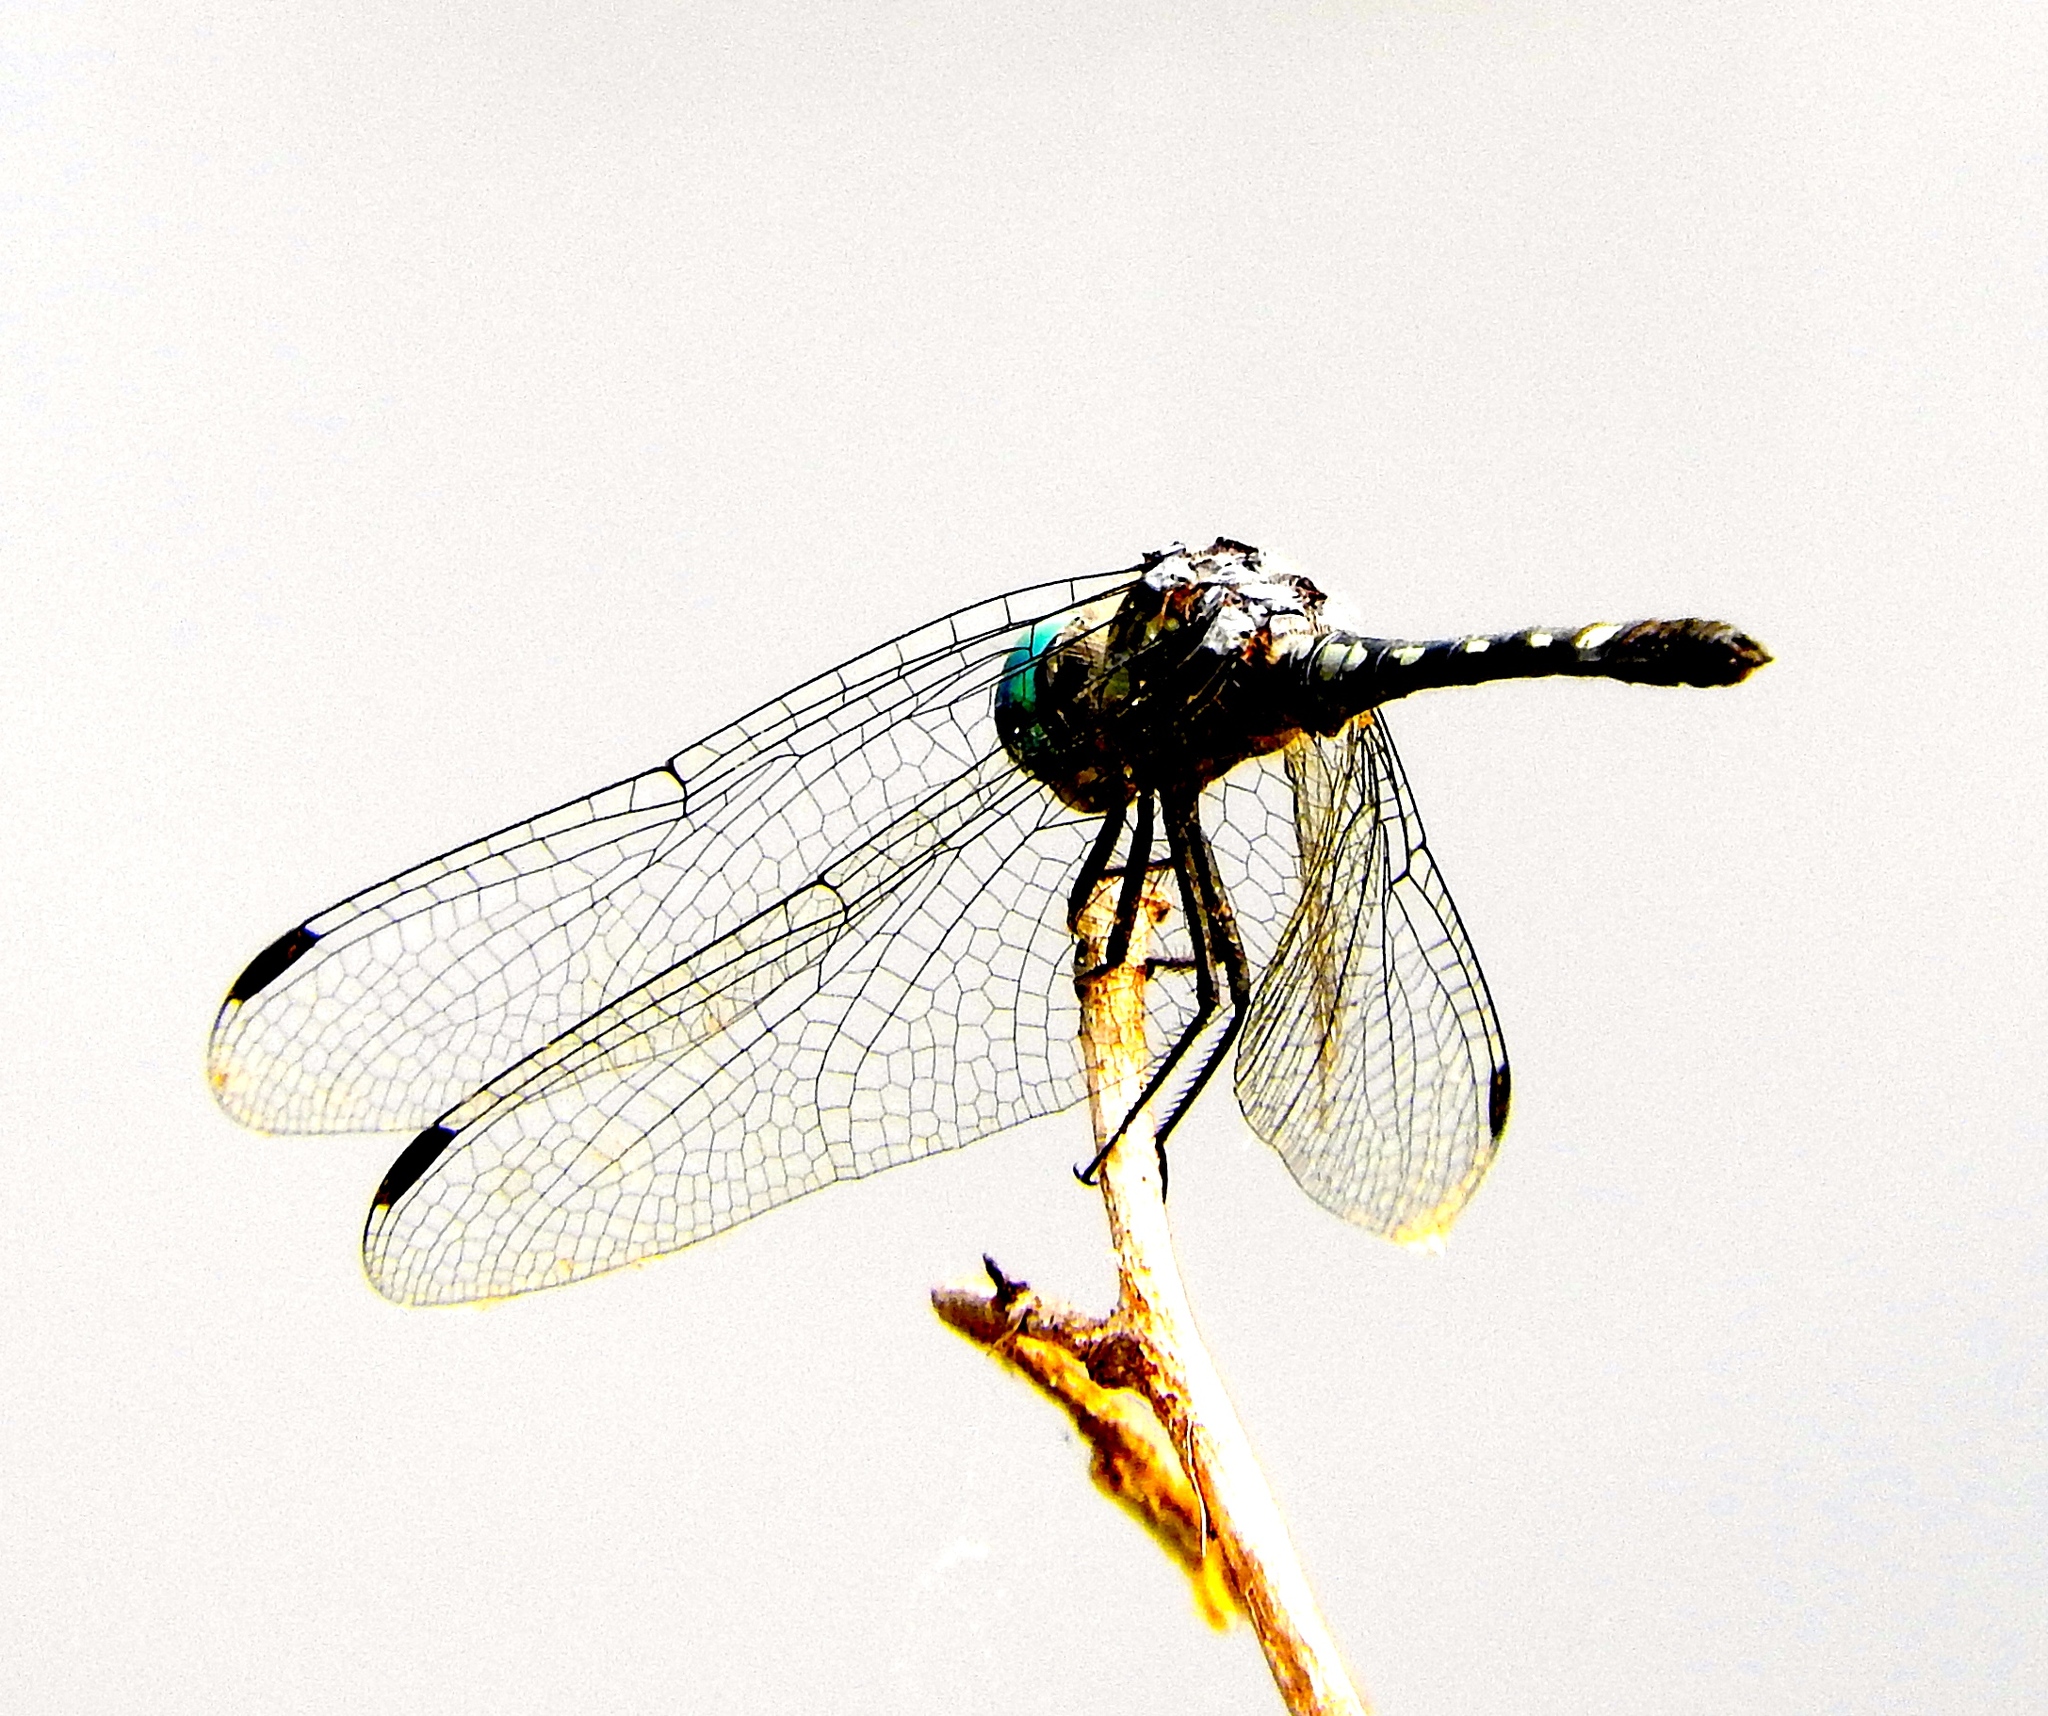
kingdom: Animalia
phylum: Arthropoda
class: Insecta
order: Odonata
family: Libellulidae
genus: Micrathyria
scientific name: Micrathyria hagenii
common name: Thornbush dasher
